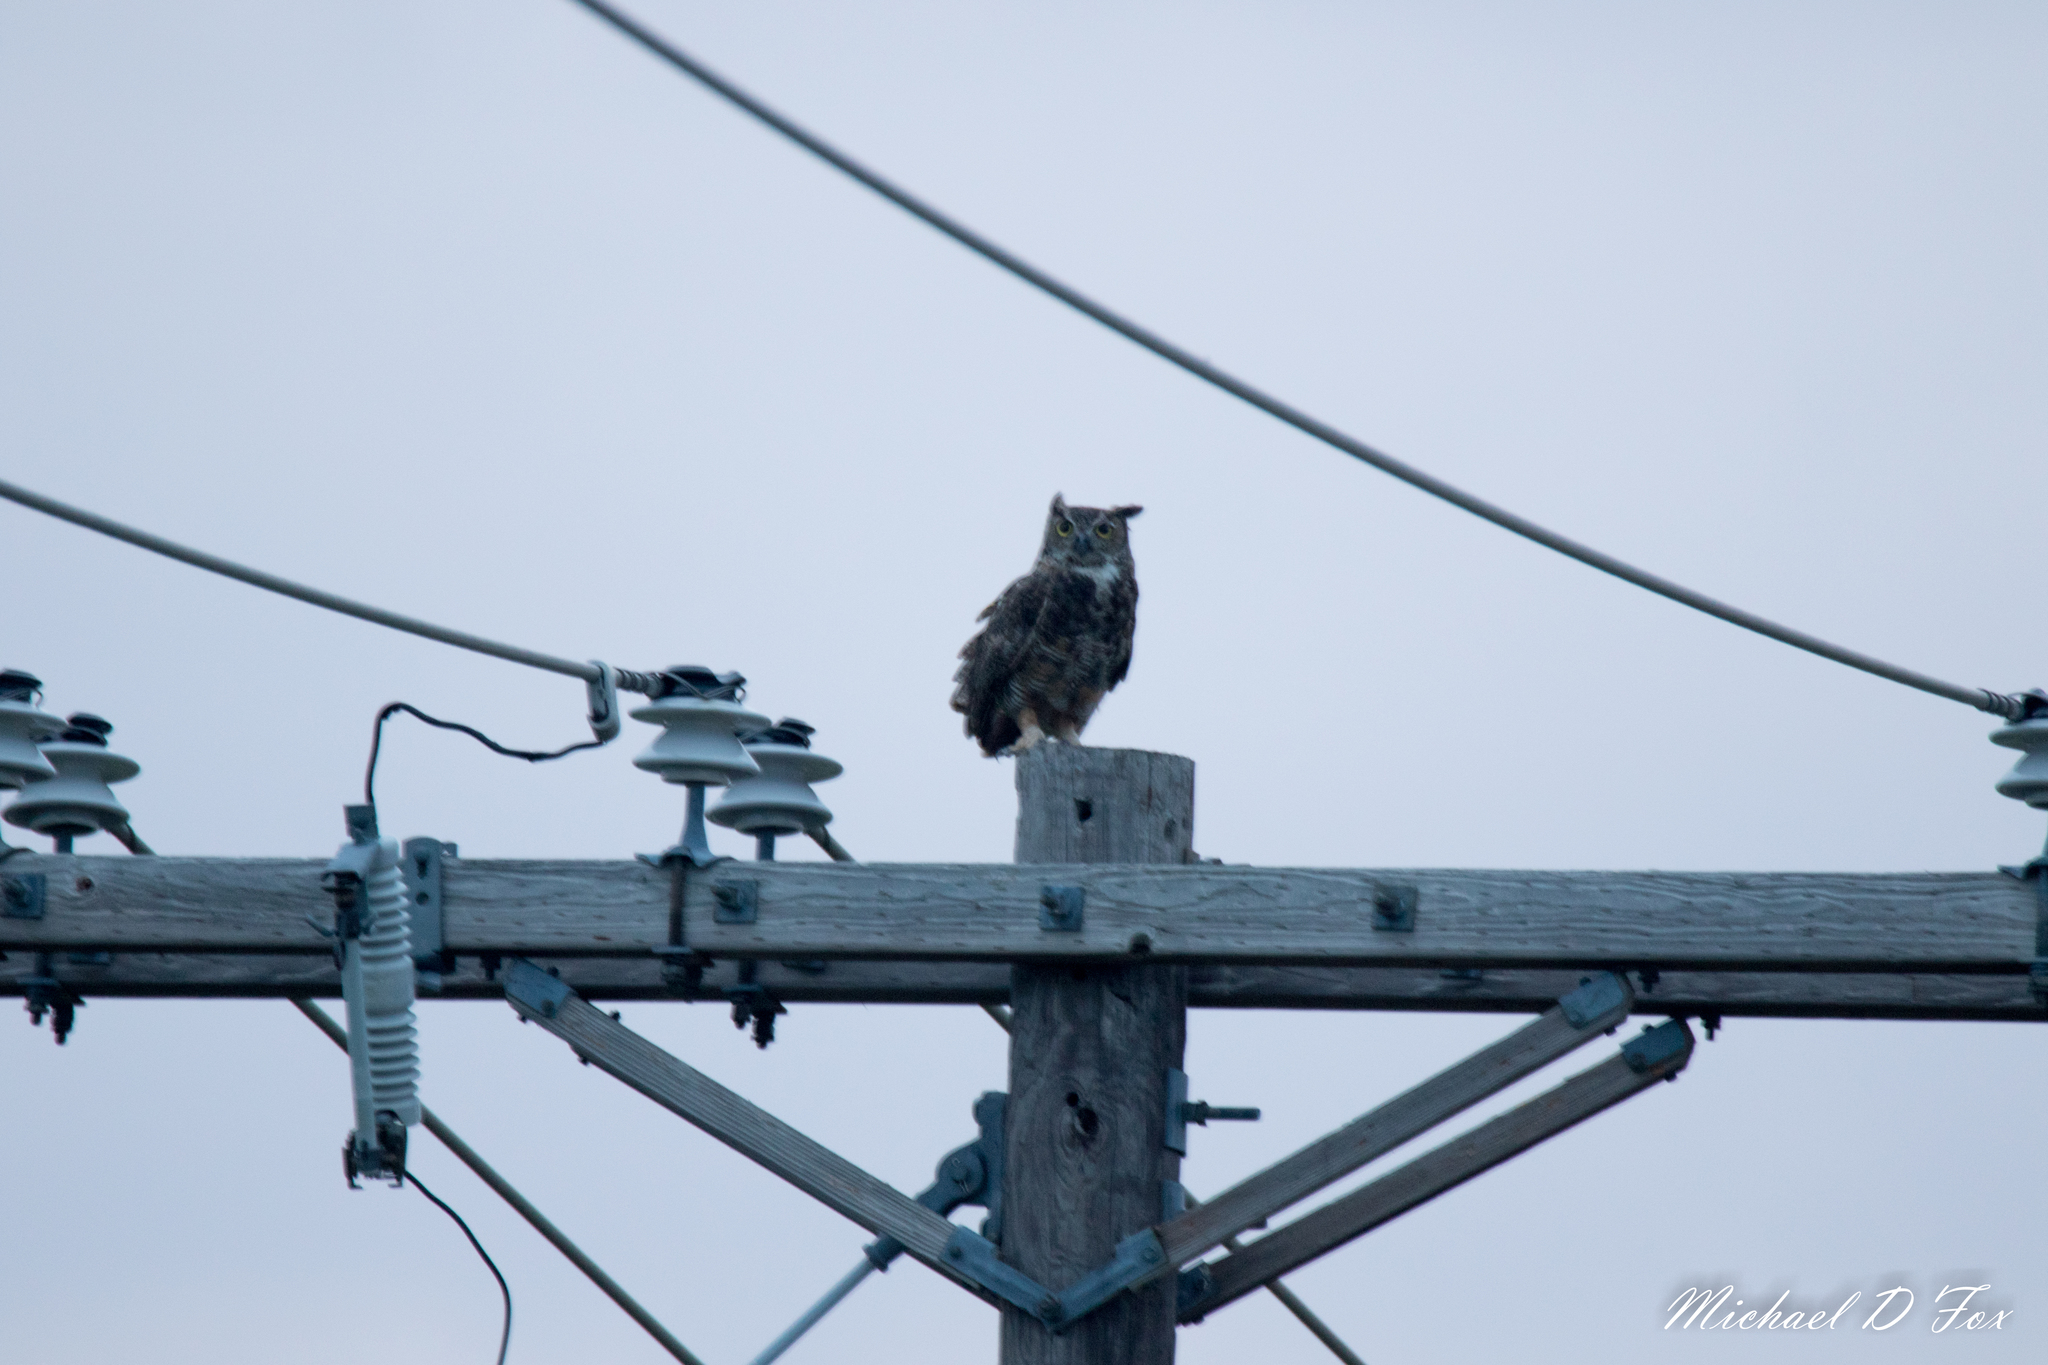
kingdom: Animalia
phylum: Chordata
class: Aves
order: Strigiformes
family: Strigidae
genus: Bubo
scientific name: Bubo virginianus
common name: Great horned owl
